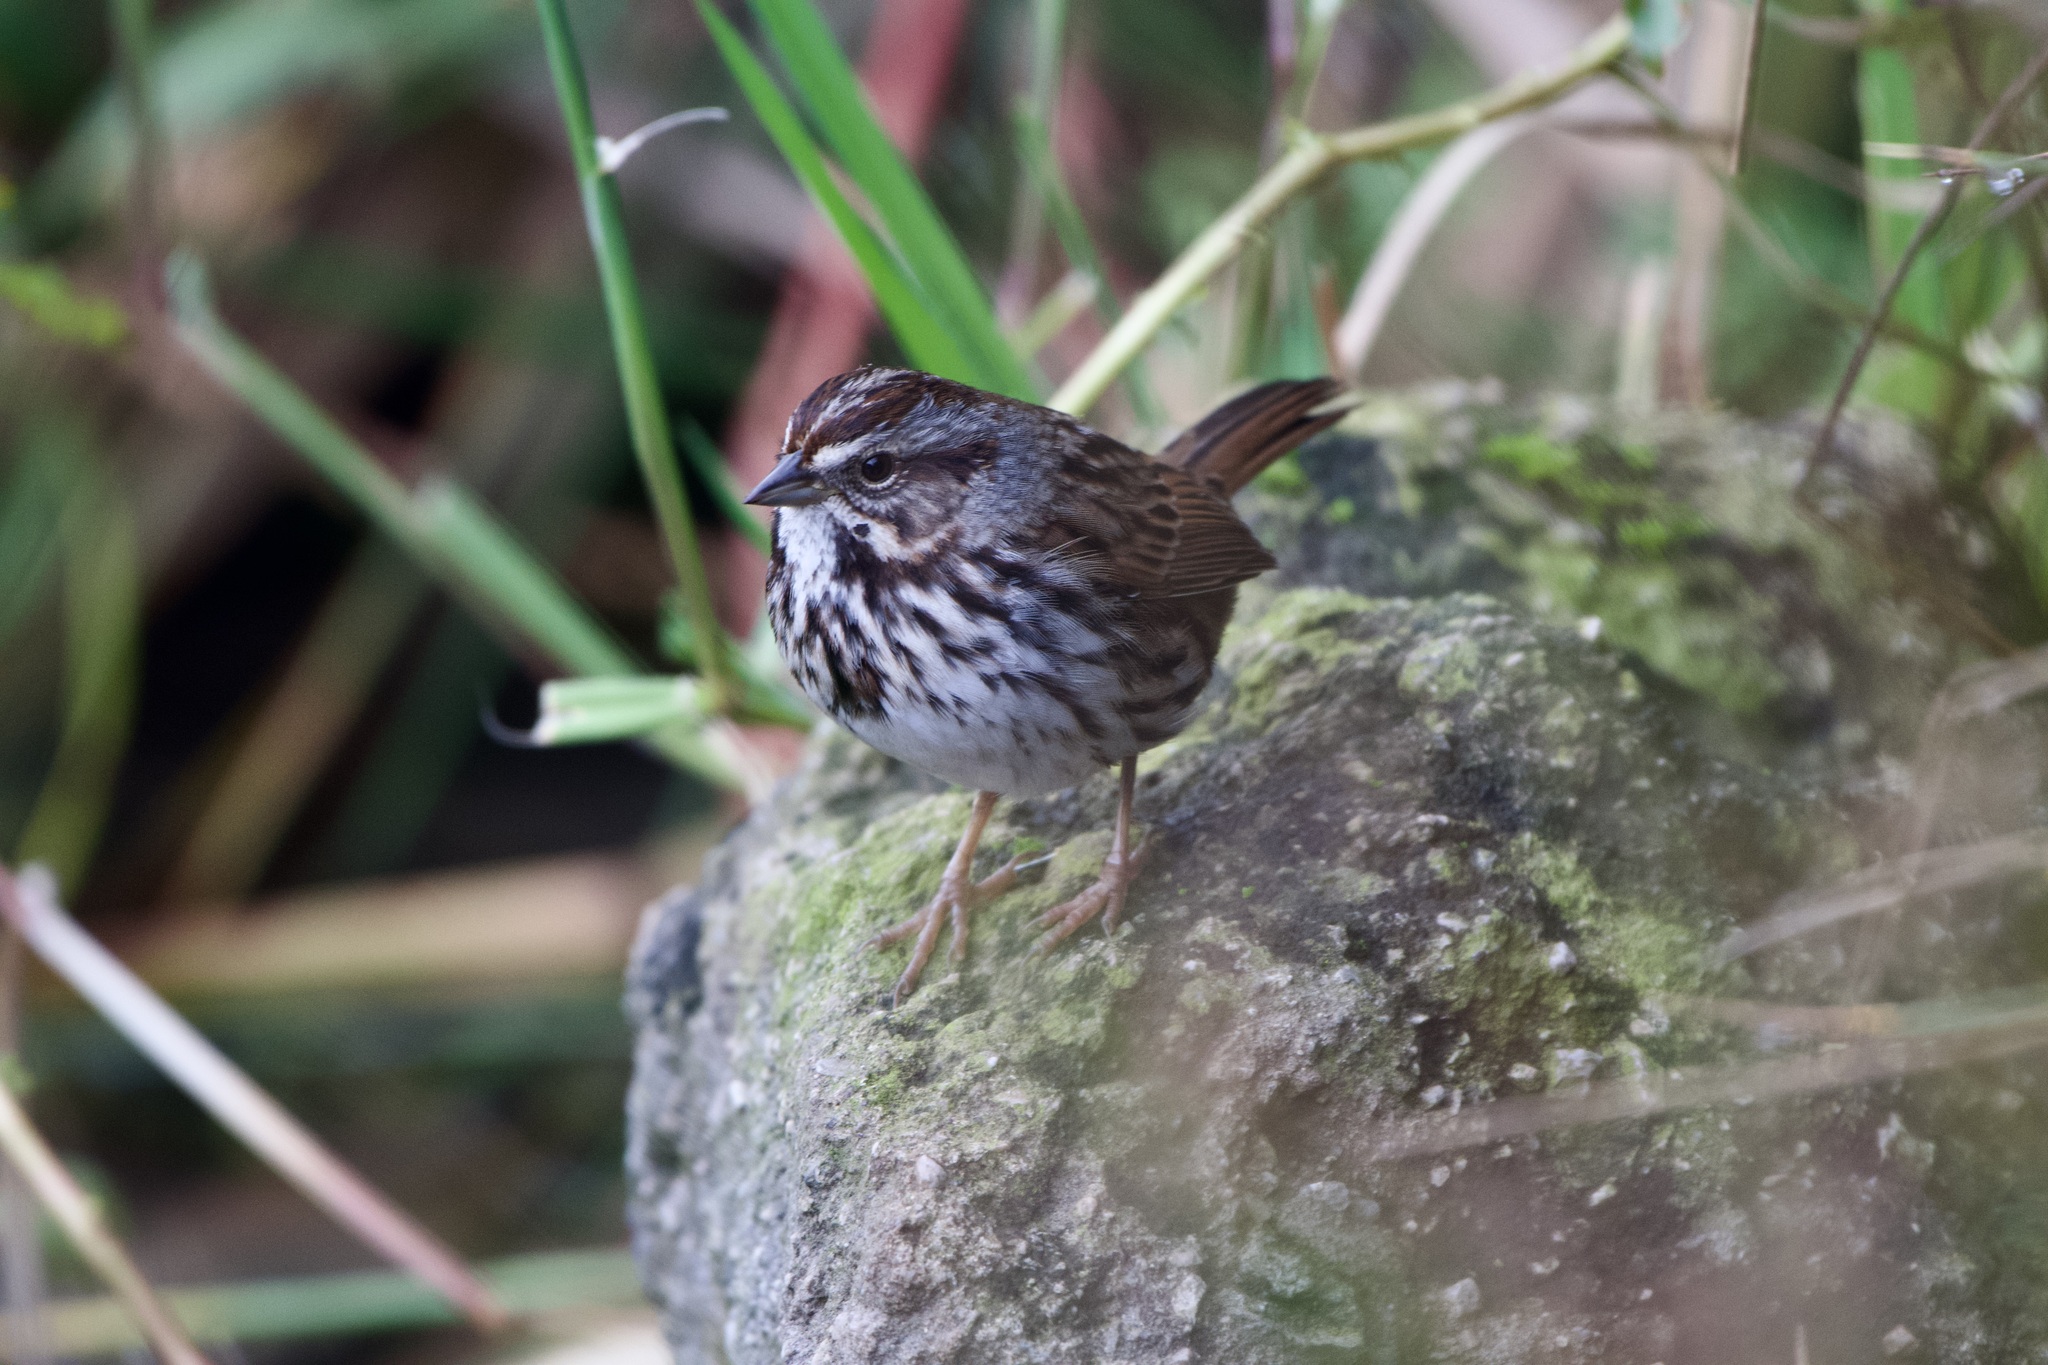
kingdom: Animalia
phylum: Chordata
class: Aves
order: Passeriformes
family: Passerellidae
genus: Melospiza
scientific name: Melospiza melodia
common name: Song sparrow
